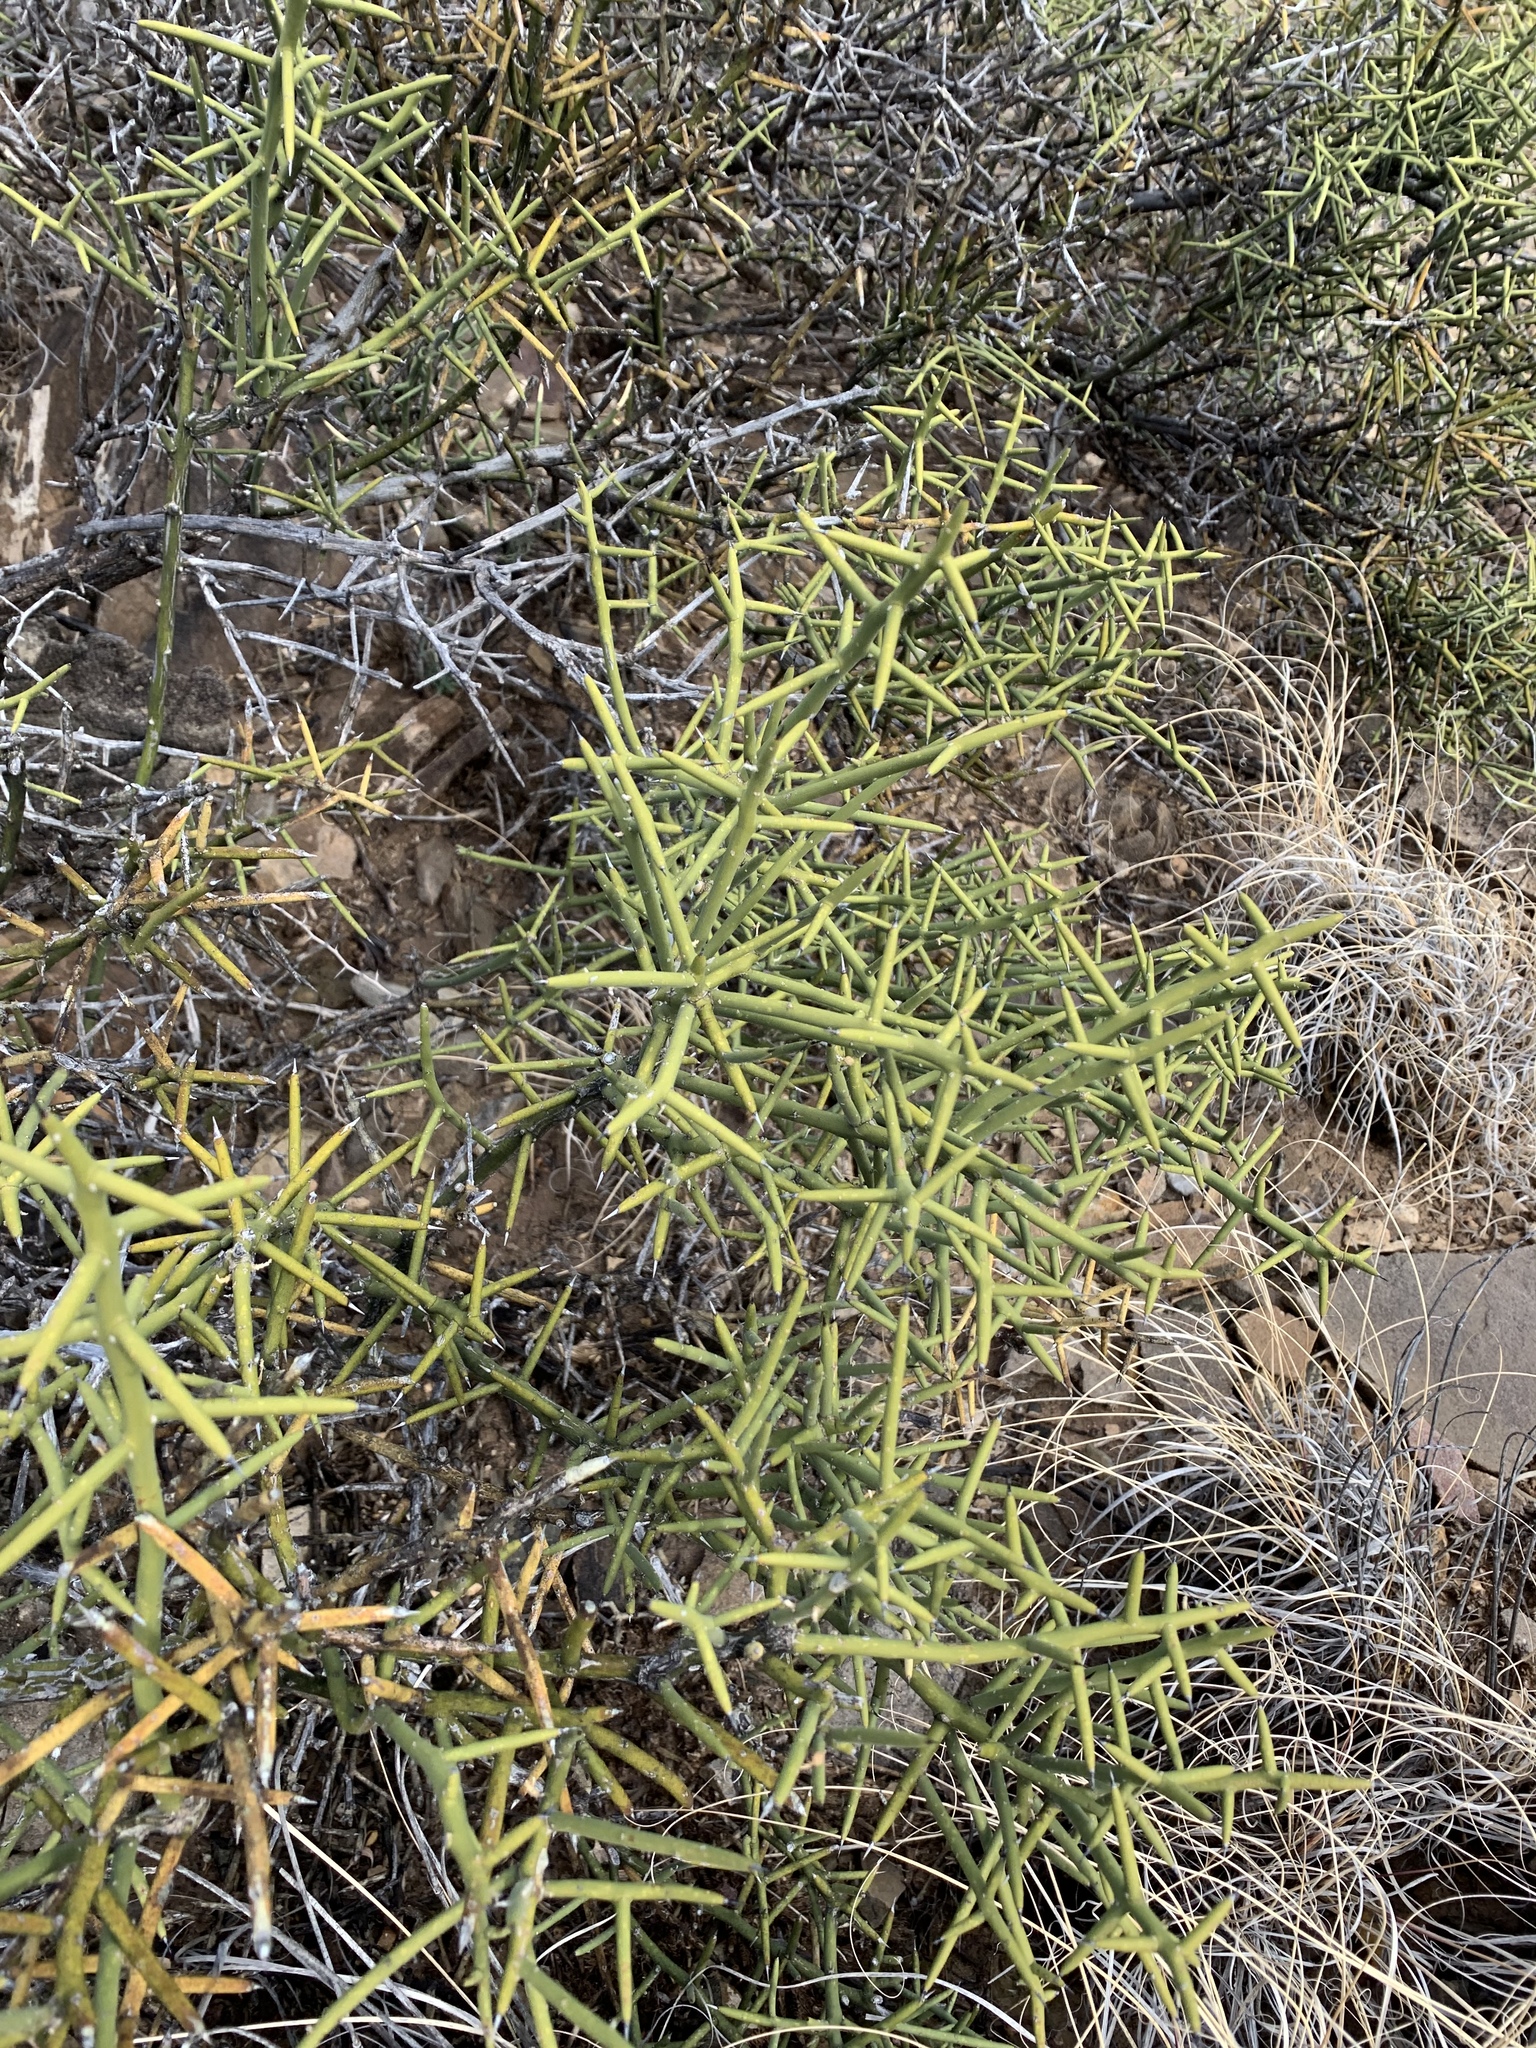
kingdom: Plantae
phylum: Tracheophyta
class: Magnoliopsida
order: Brassicales
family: Koeberliniaceae
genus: Koeberlinia
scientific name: Koeberlinia spinosa
